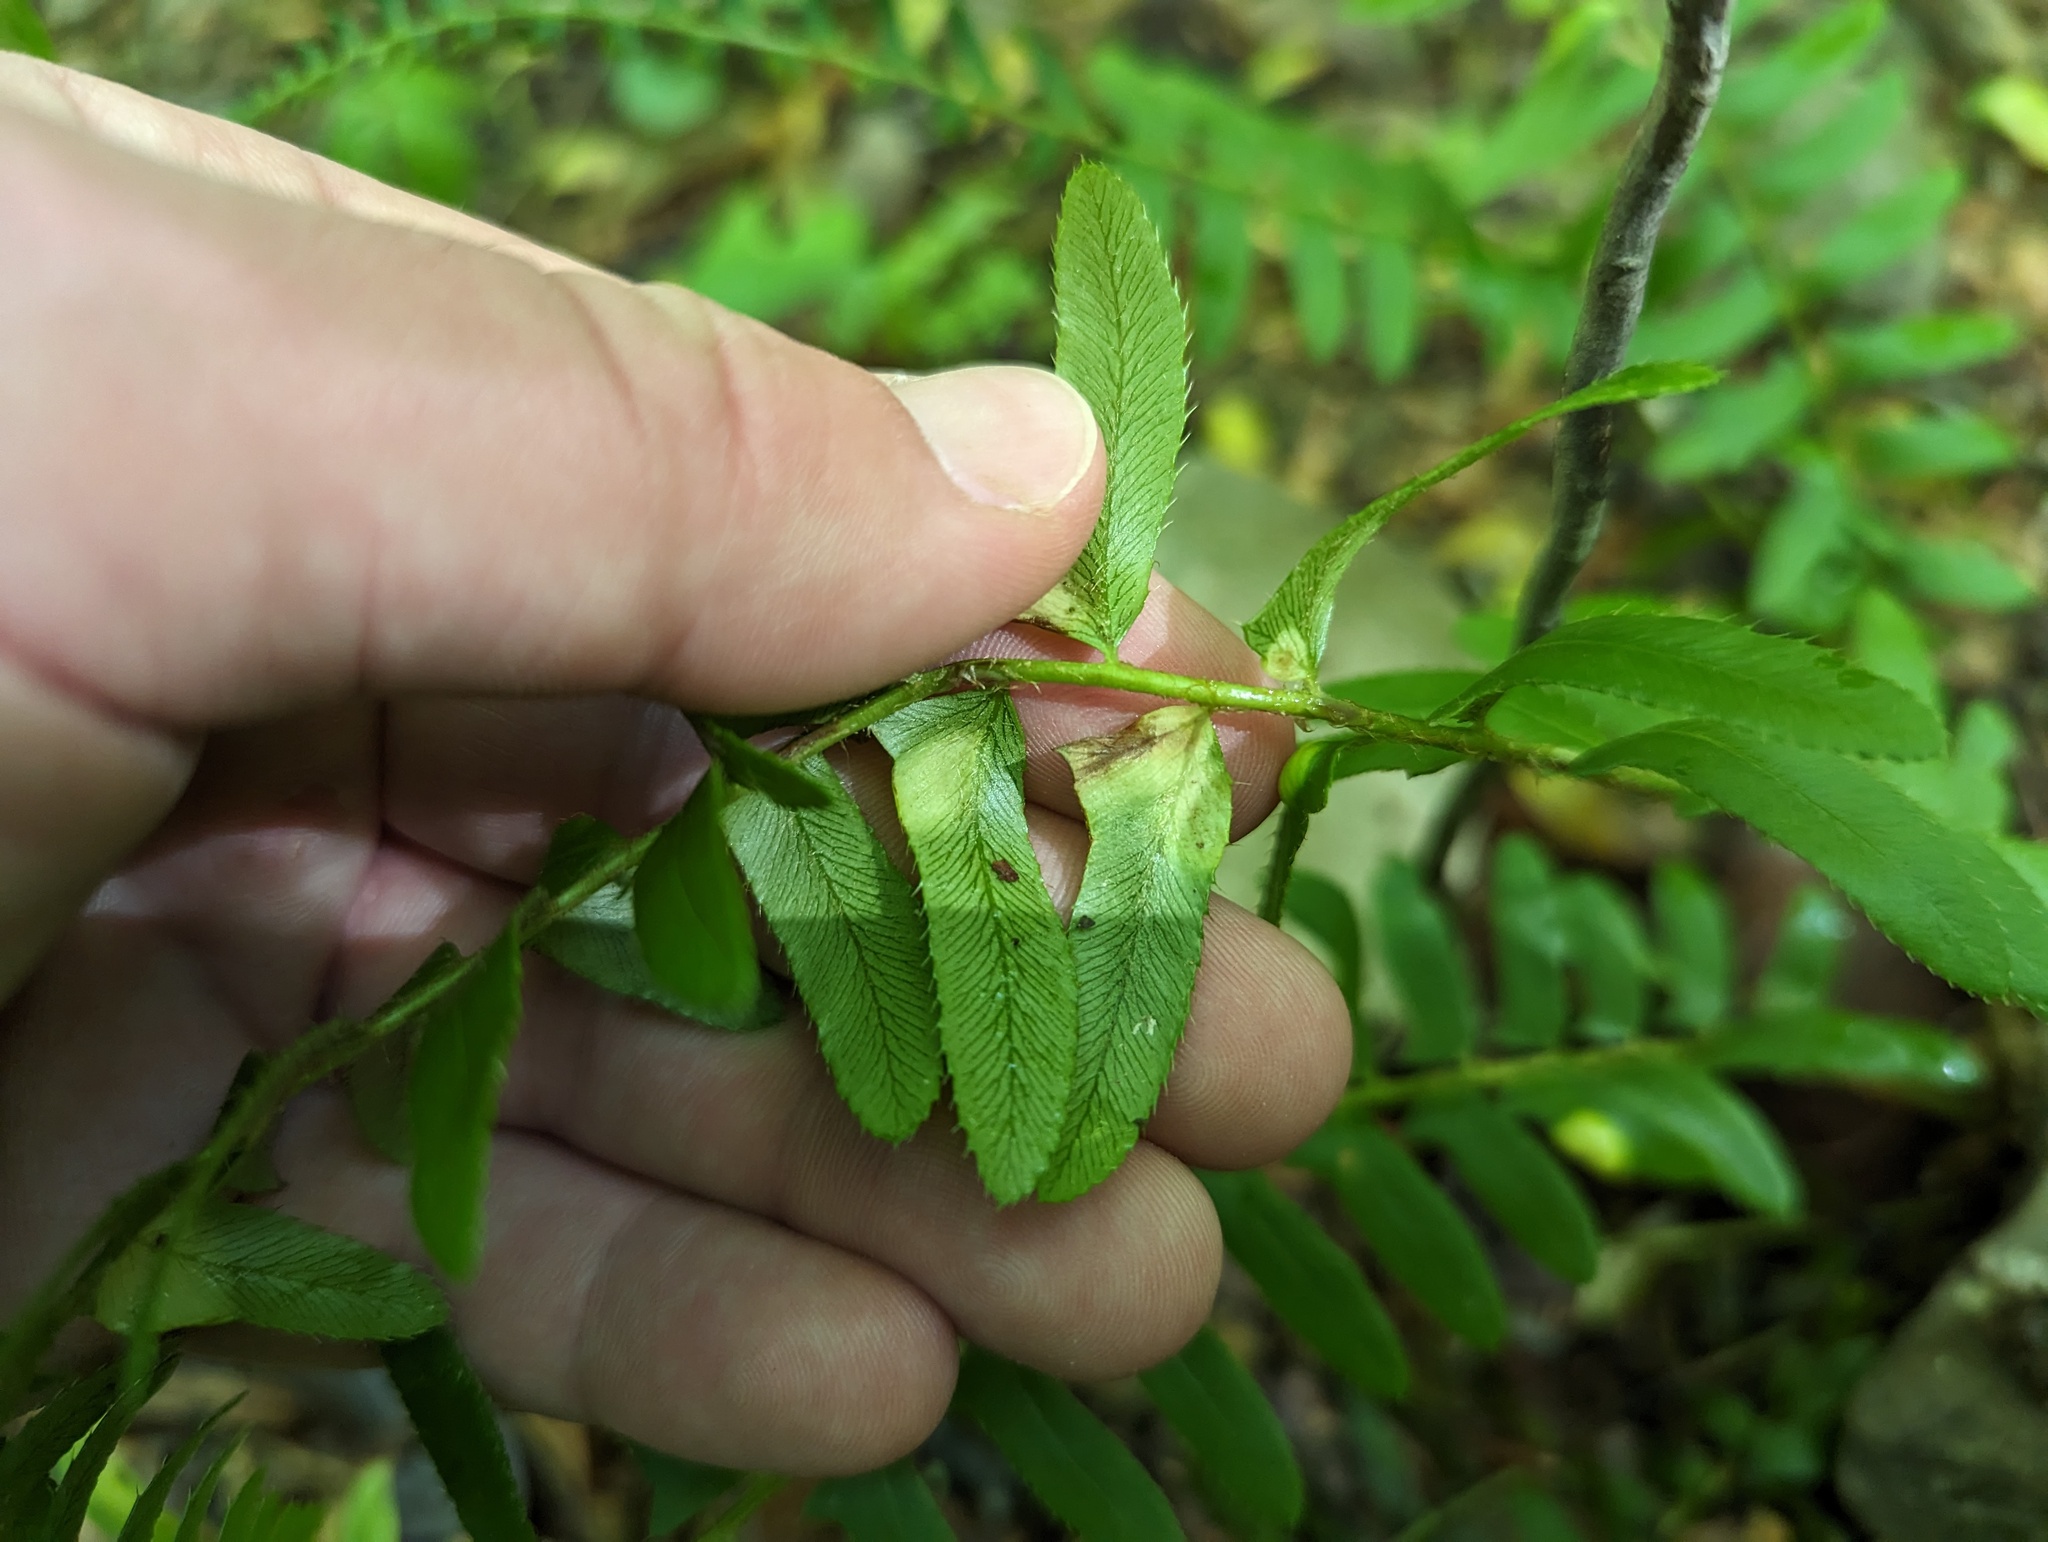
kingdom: Fungi
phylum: Ascomycota
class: Taphrinomycetes
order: Taphrinales
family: Taphrinaceae
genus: Taphrina
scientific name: Taphrina polystichi
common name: Christmas fern leaf curl
